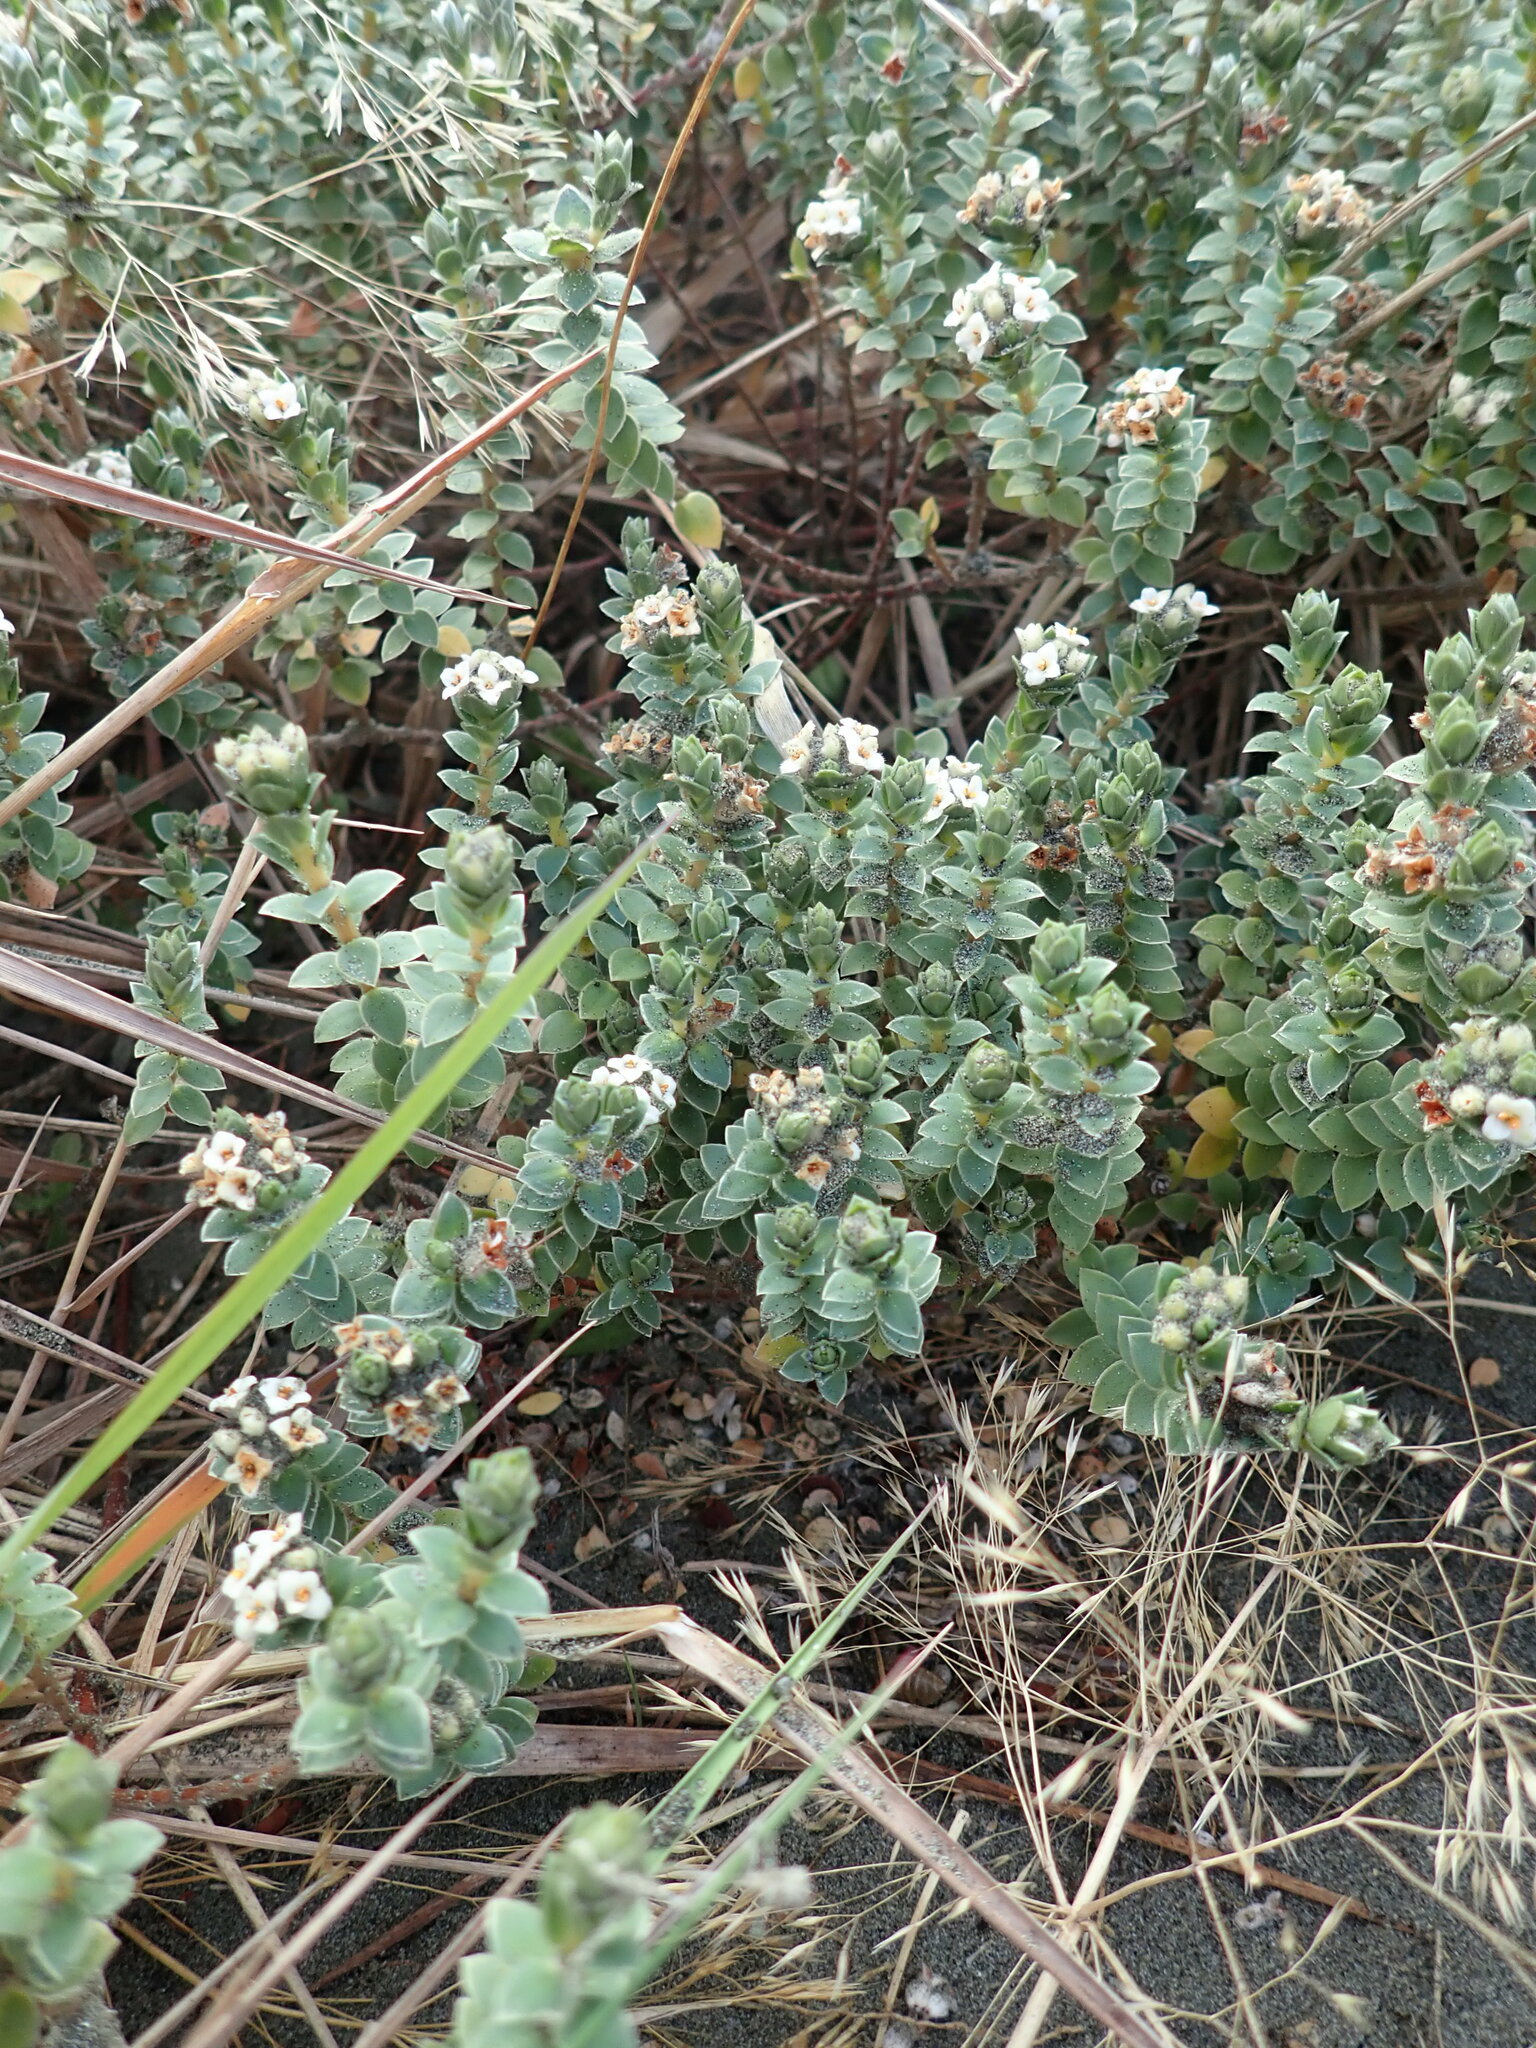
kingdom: Plantae
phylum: Tracheophyta
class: Magnoliopsida
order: Malvales
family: Thymelaeaceae
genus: Pimelea
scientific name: Pimelea villosa
